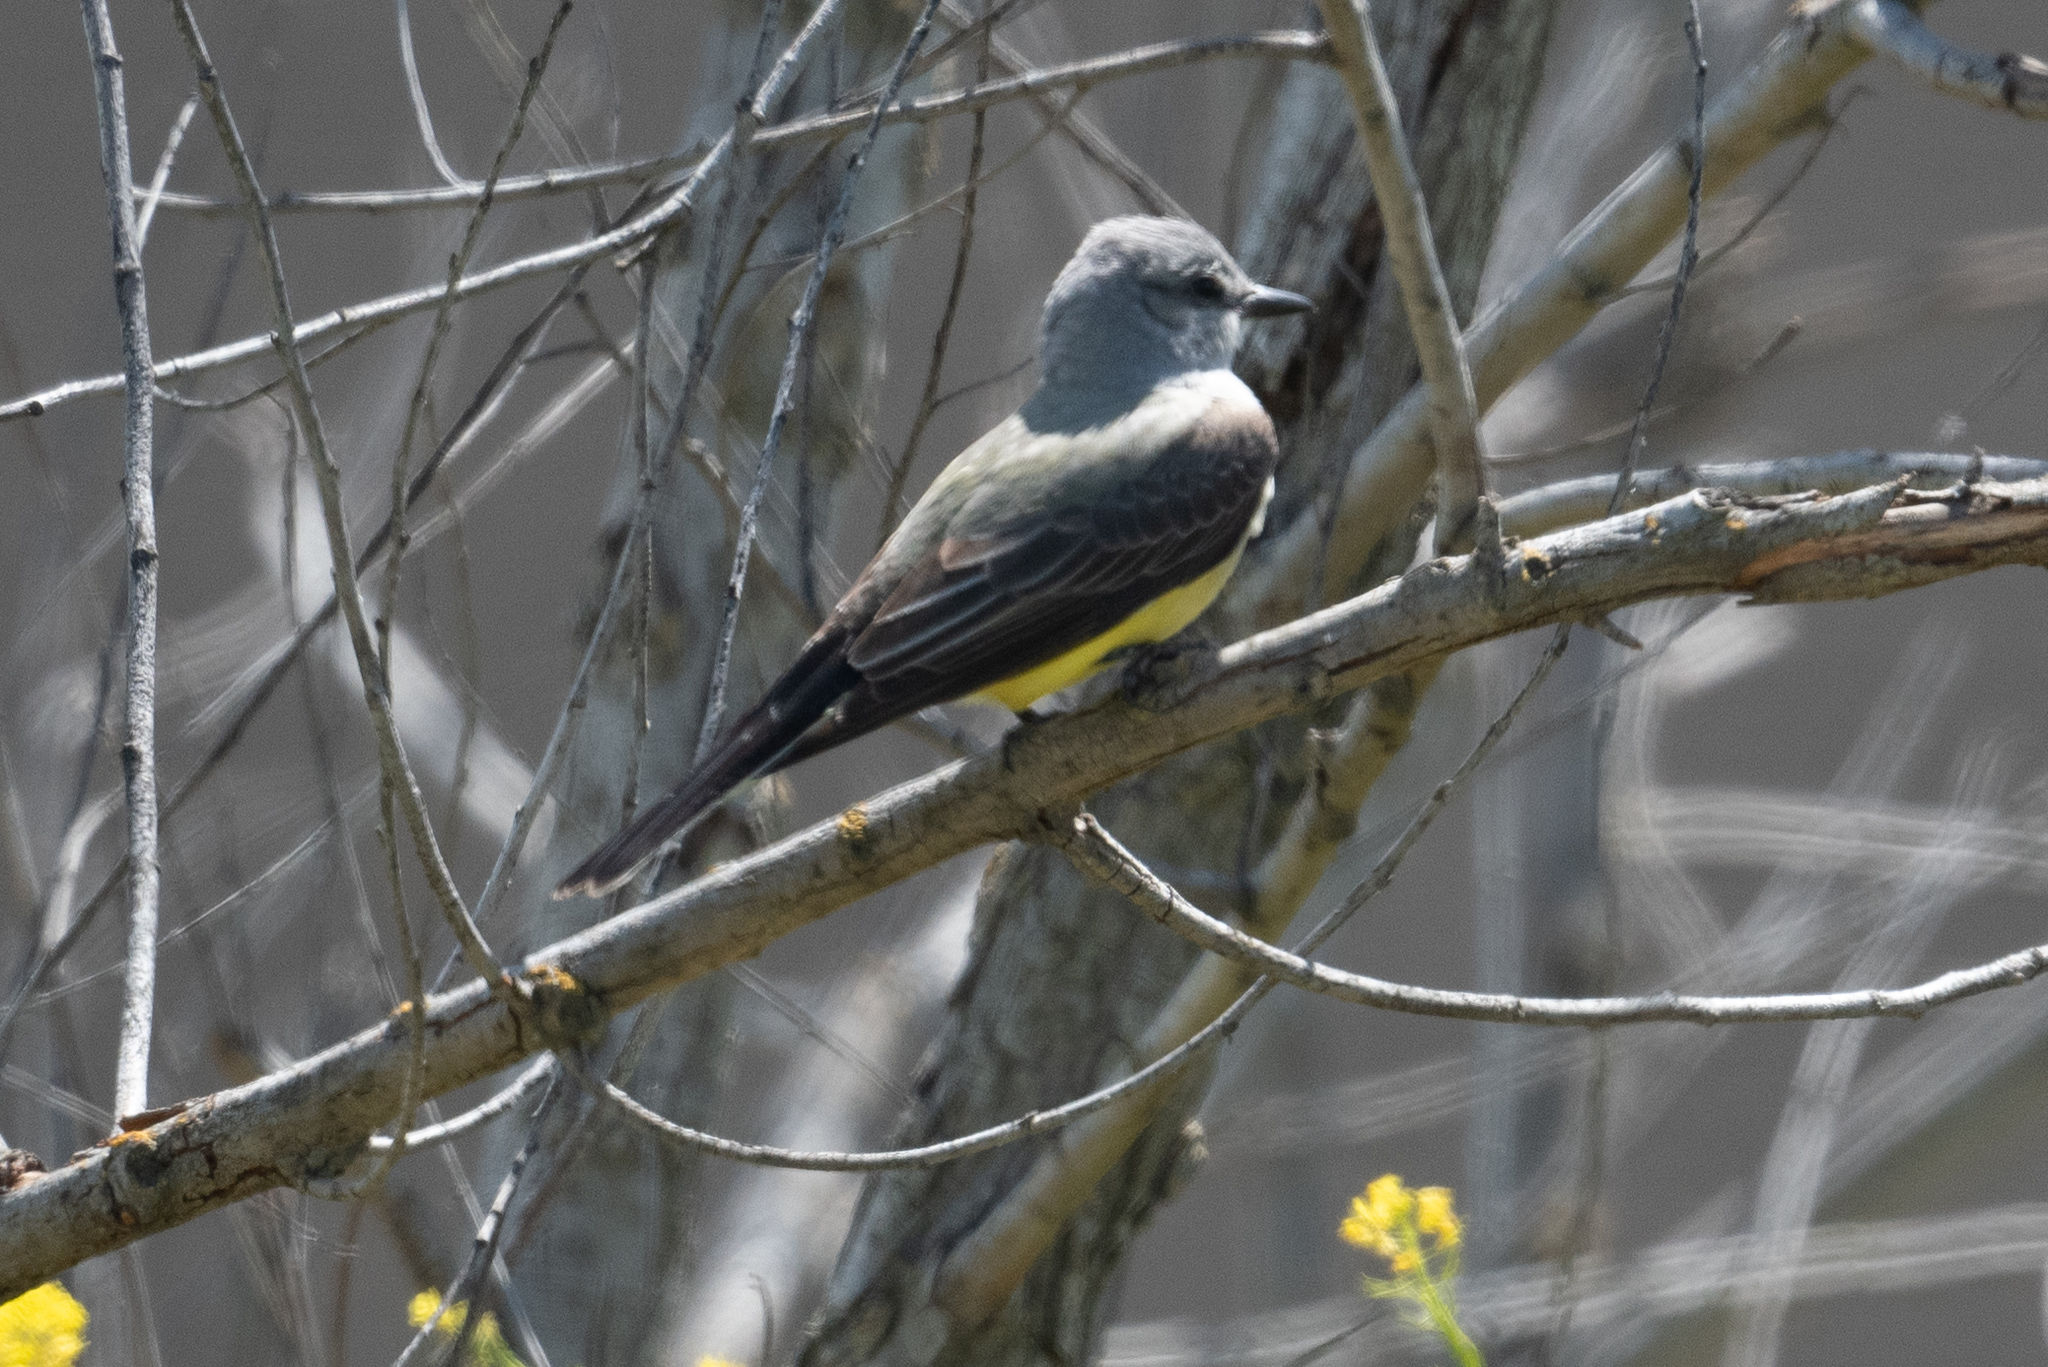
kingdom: Animalia
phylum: Chordata
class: Aves
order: Passeriformes
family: Tyrannidae
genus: Tyrannus
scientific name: Tyrannus verticalis
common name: Western kingbird
